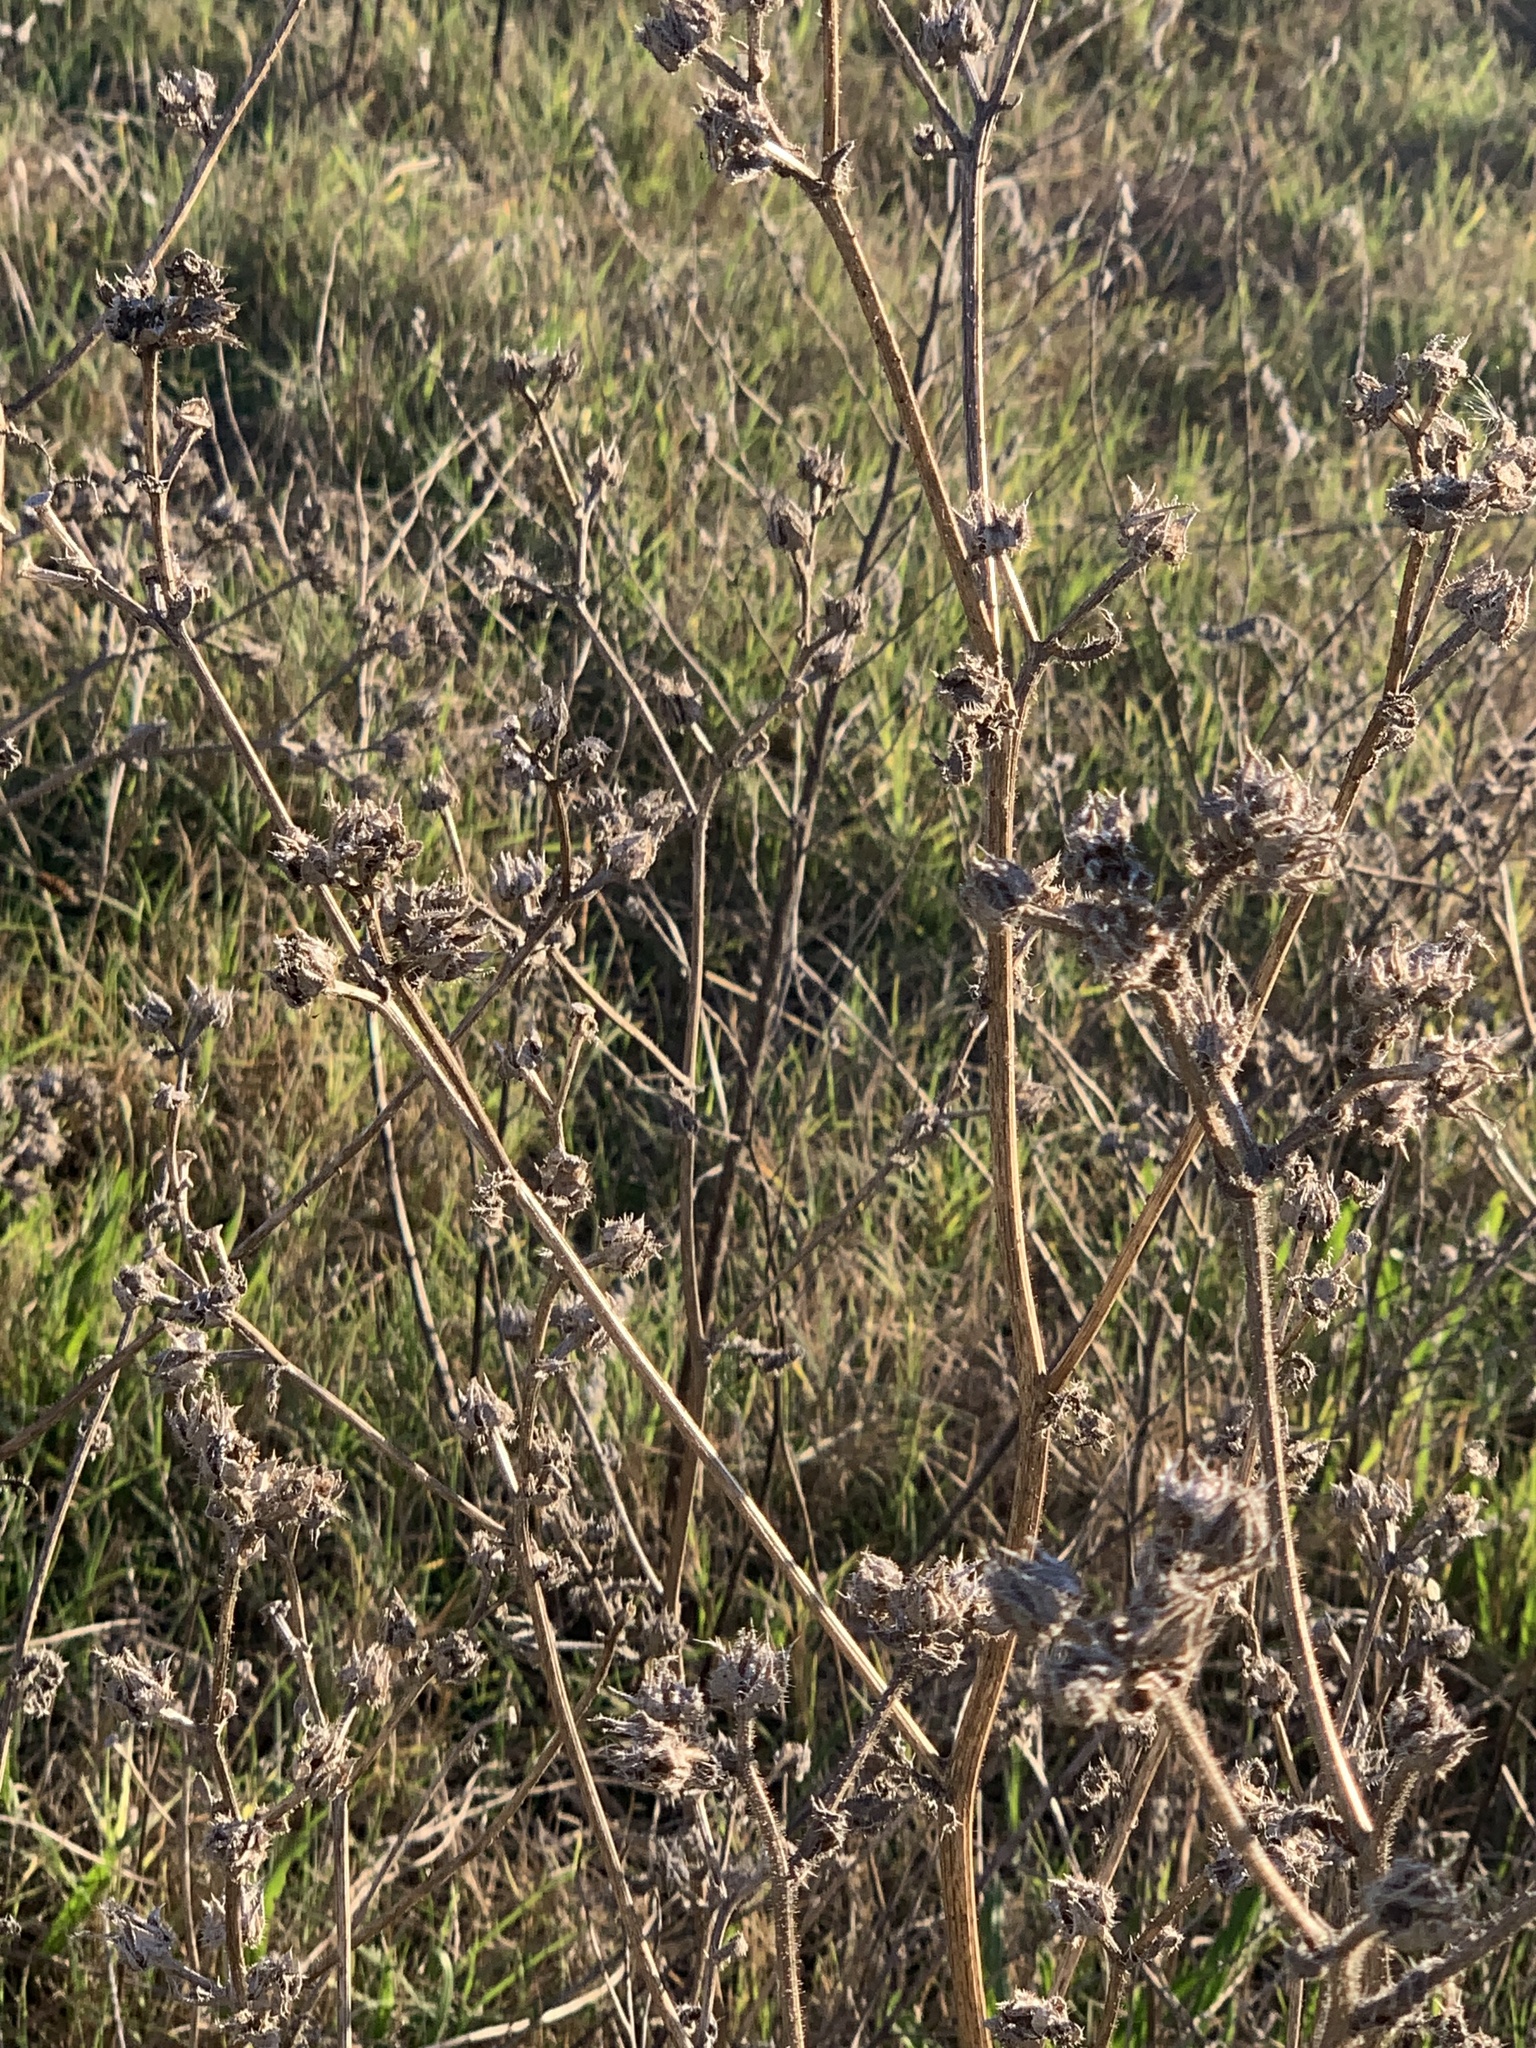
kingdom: Plantae
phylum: Tracheophyta
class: Magnoliopsida
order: Asterales
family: Asteraceae
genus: Helminthotheca
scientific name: Helminthotheca echioides
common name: Ox-tongue
